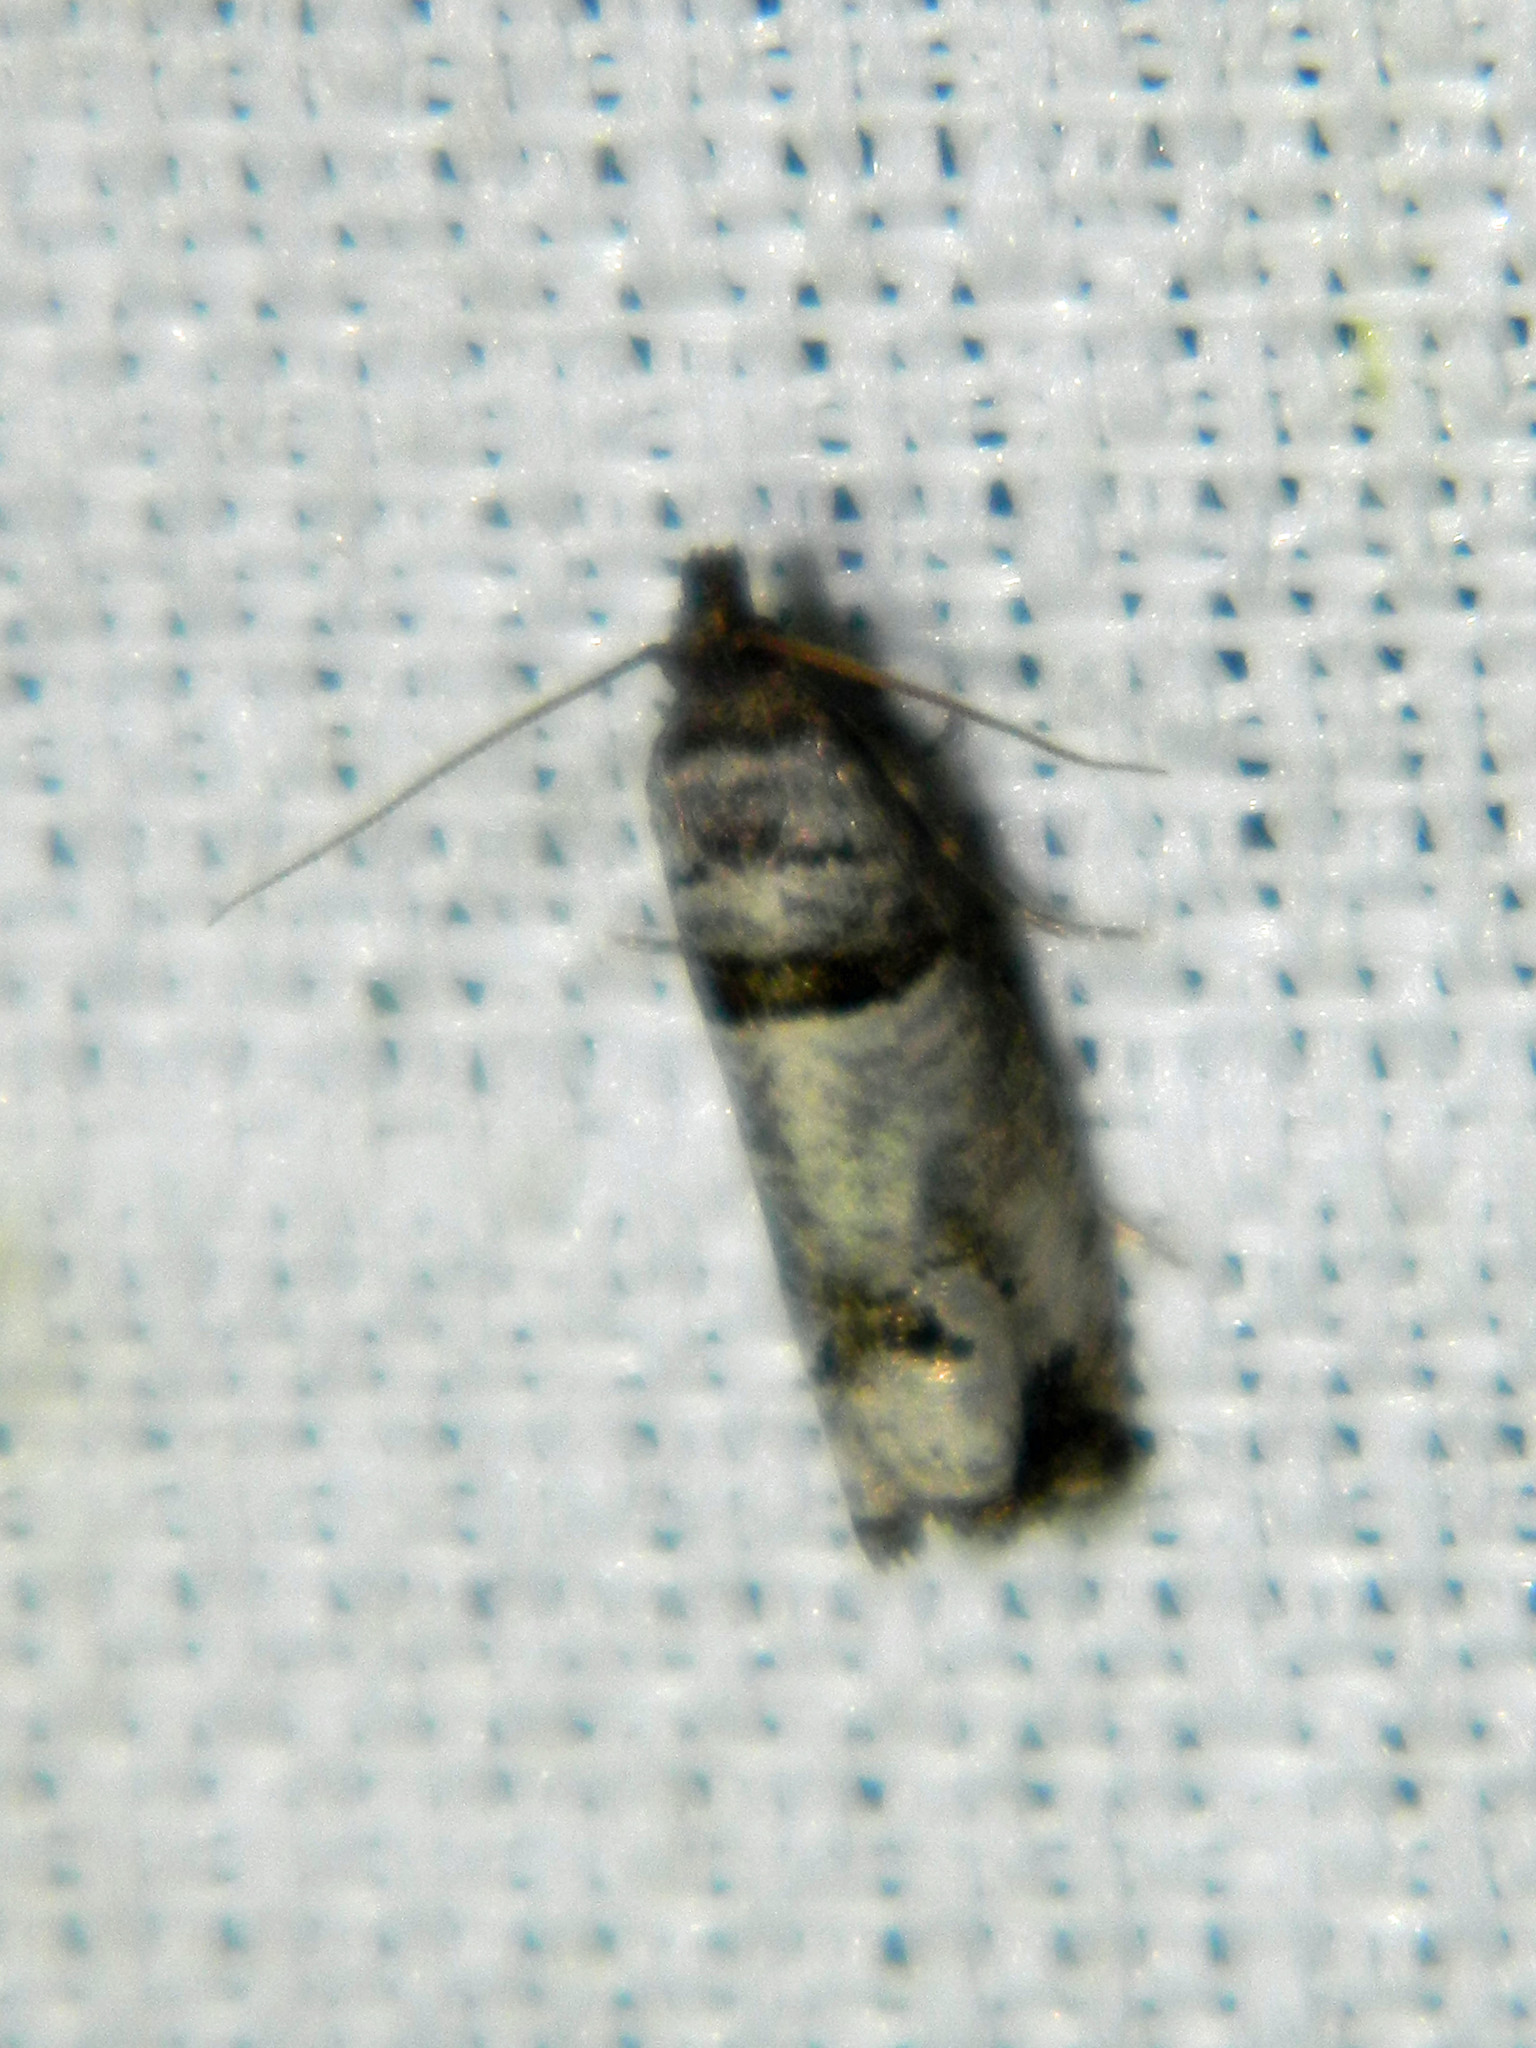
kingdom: Animalia
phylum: Arthropoda
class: Insecta
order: Lepidoptera
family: Tortricidae
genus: Notocelia
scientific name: Notocelia culminana
